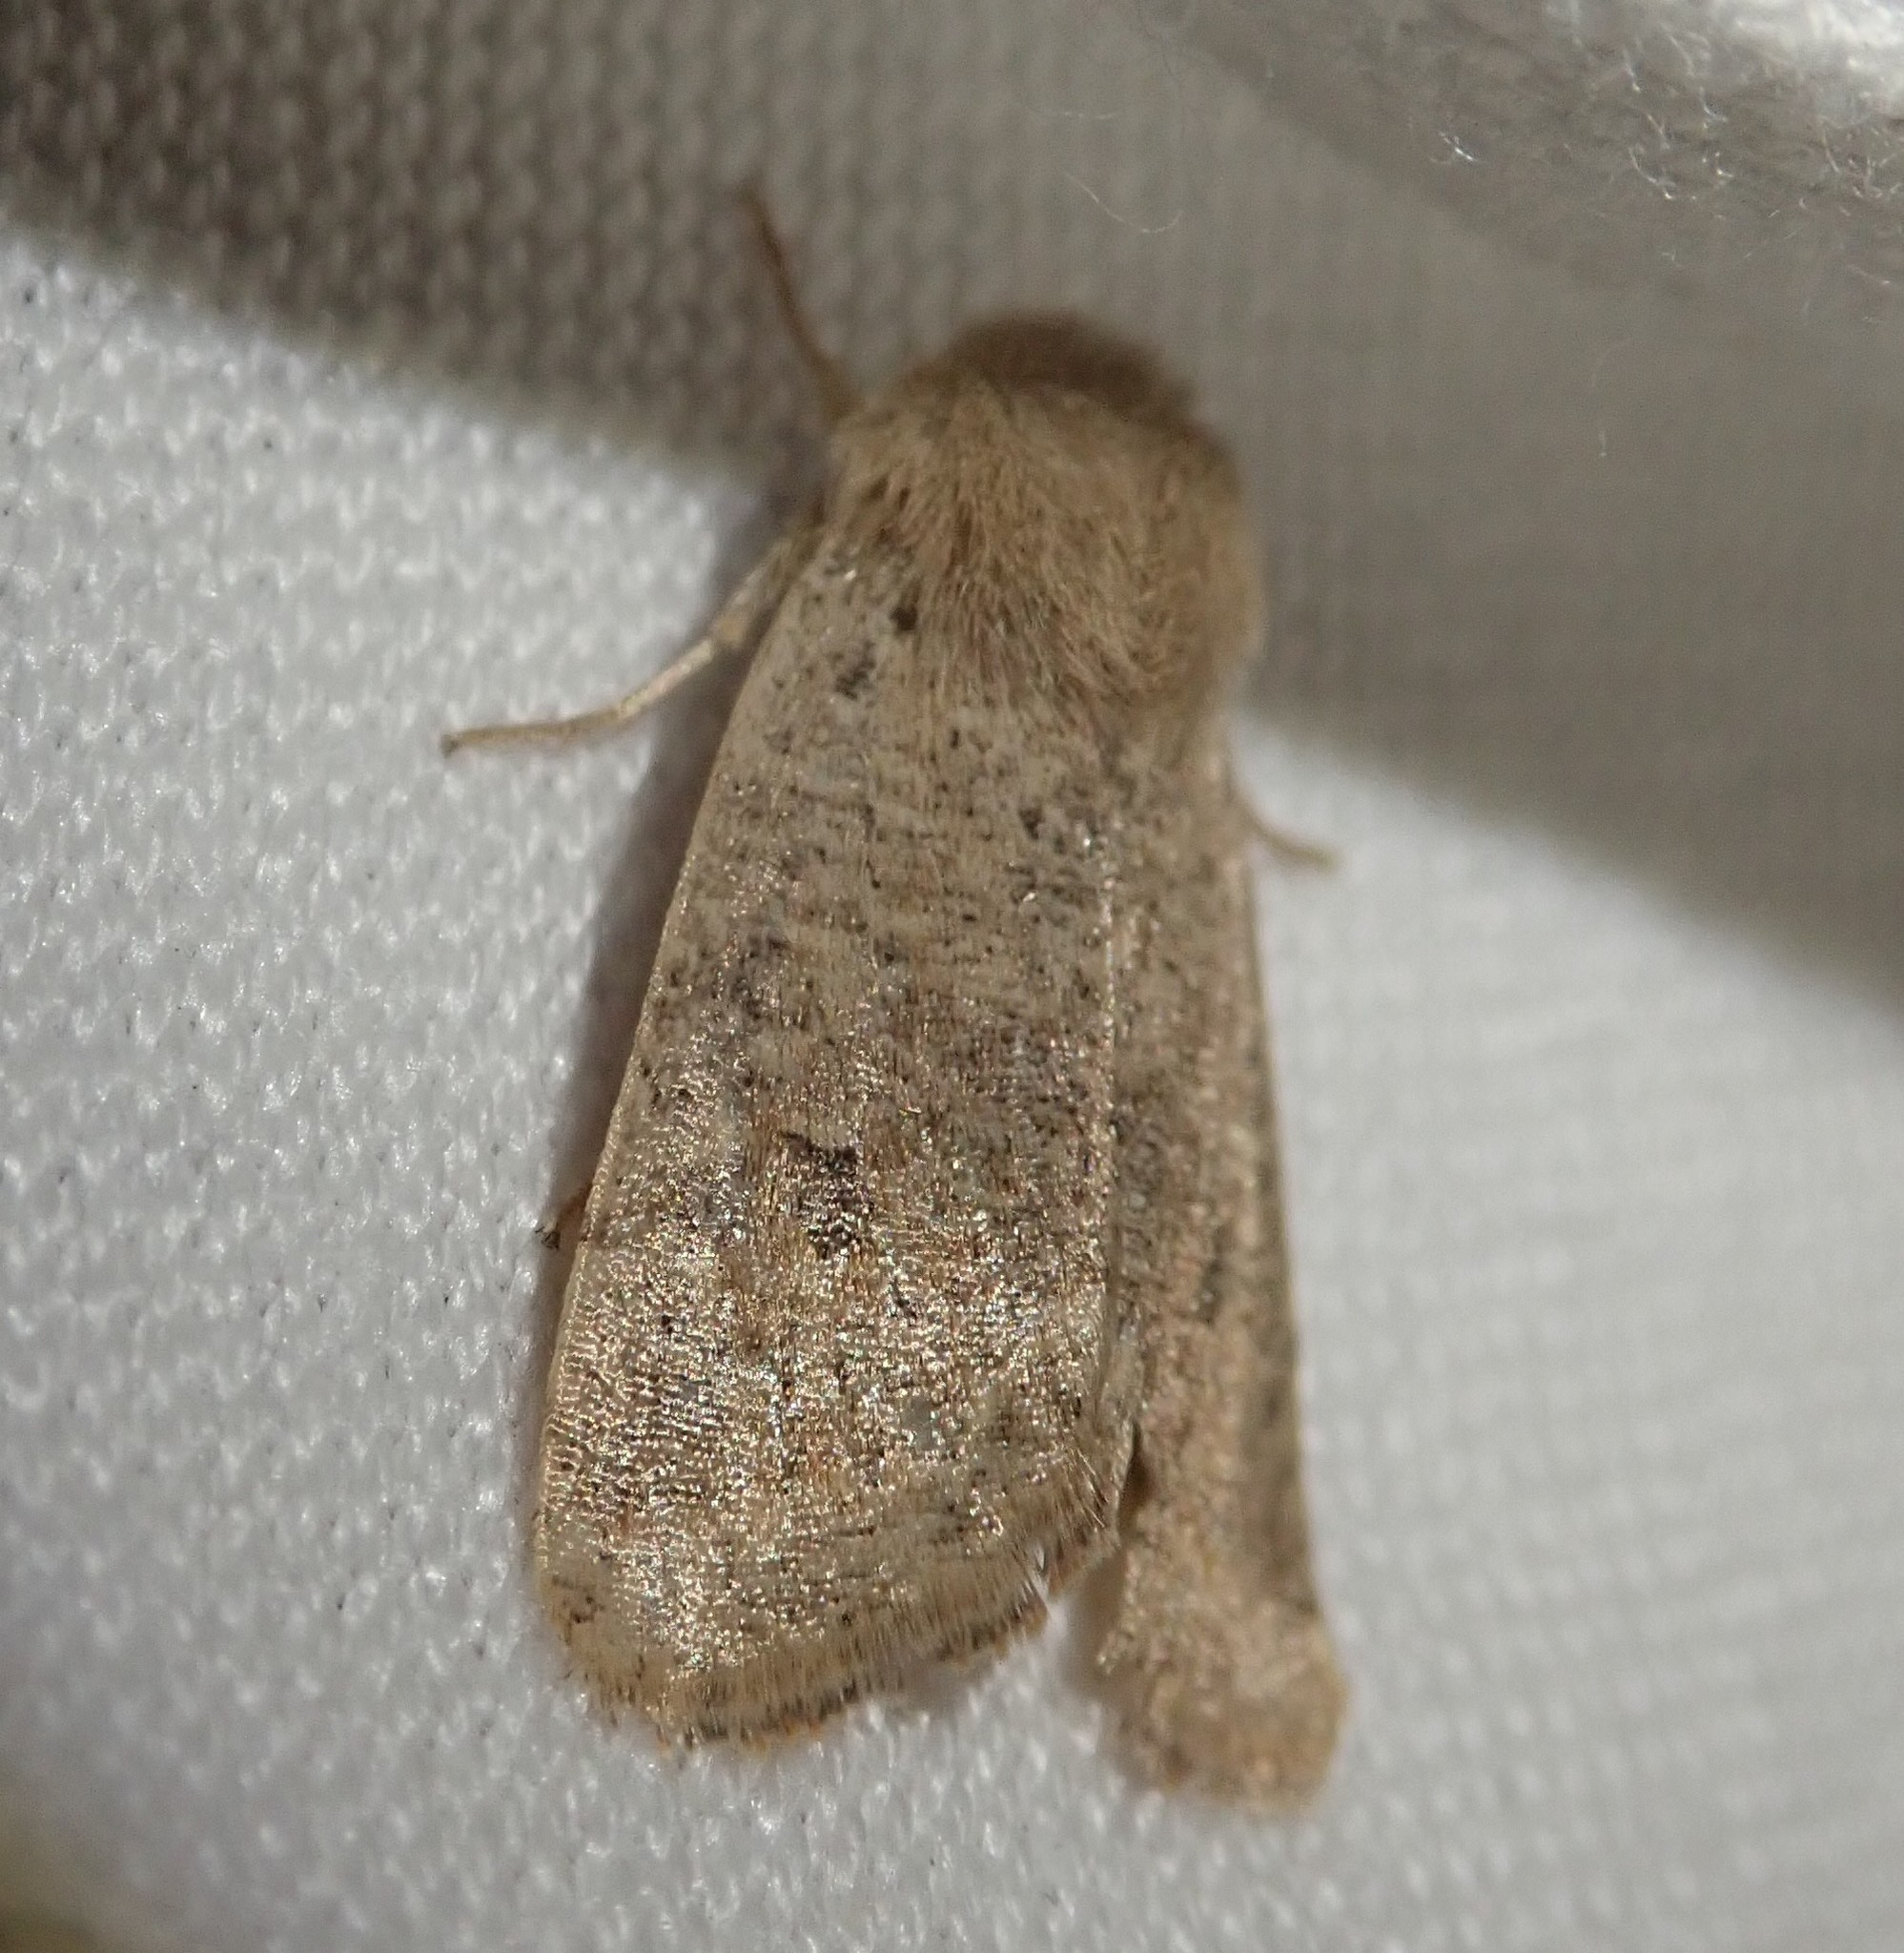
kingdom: Animalia
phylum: Arthropoda
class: Insecta
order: Lepidoptera
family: Noctuidae
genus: Orthosia
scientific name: Orthosia cruda
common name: Small quaker
